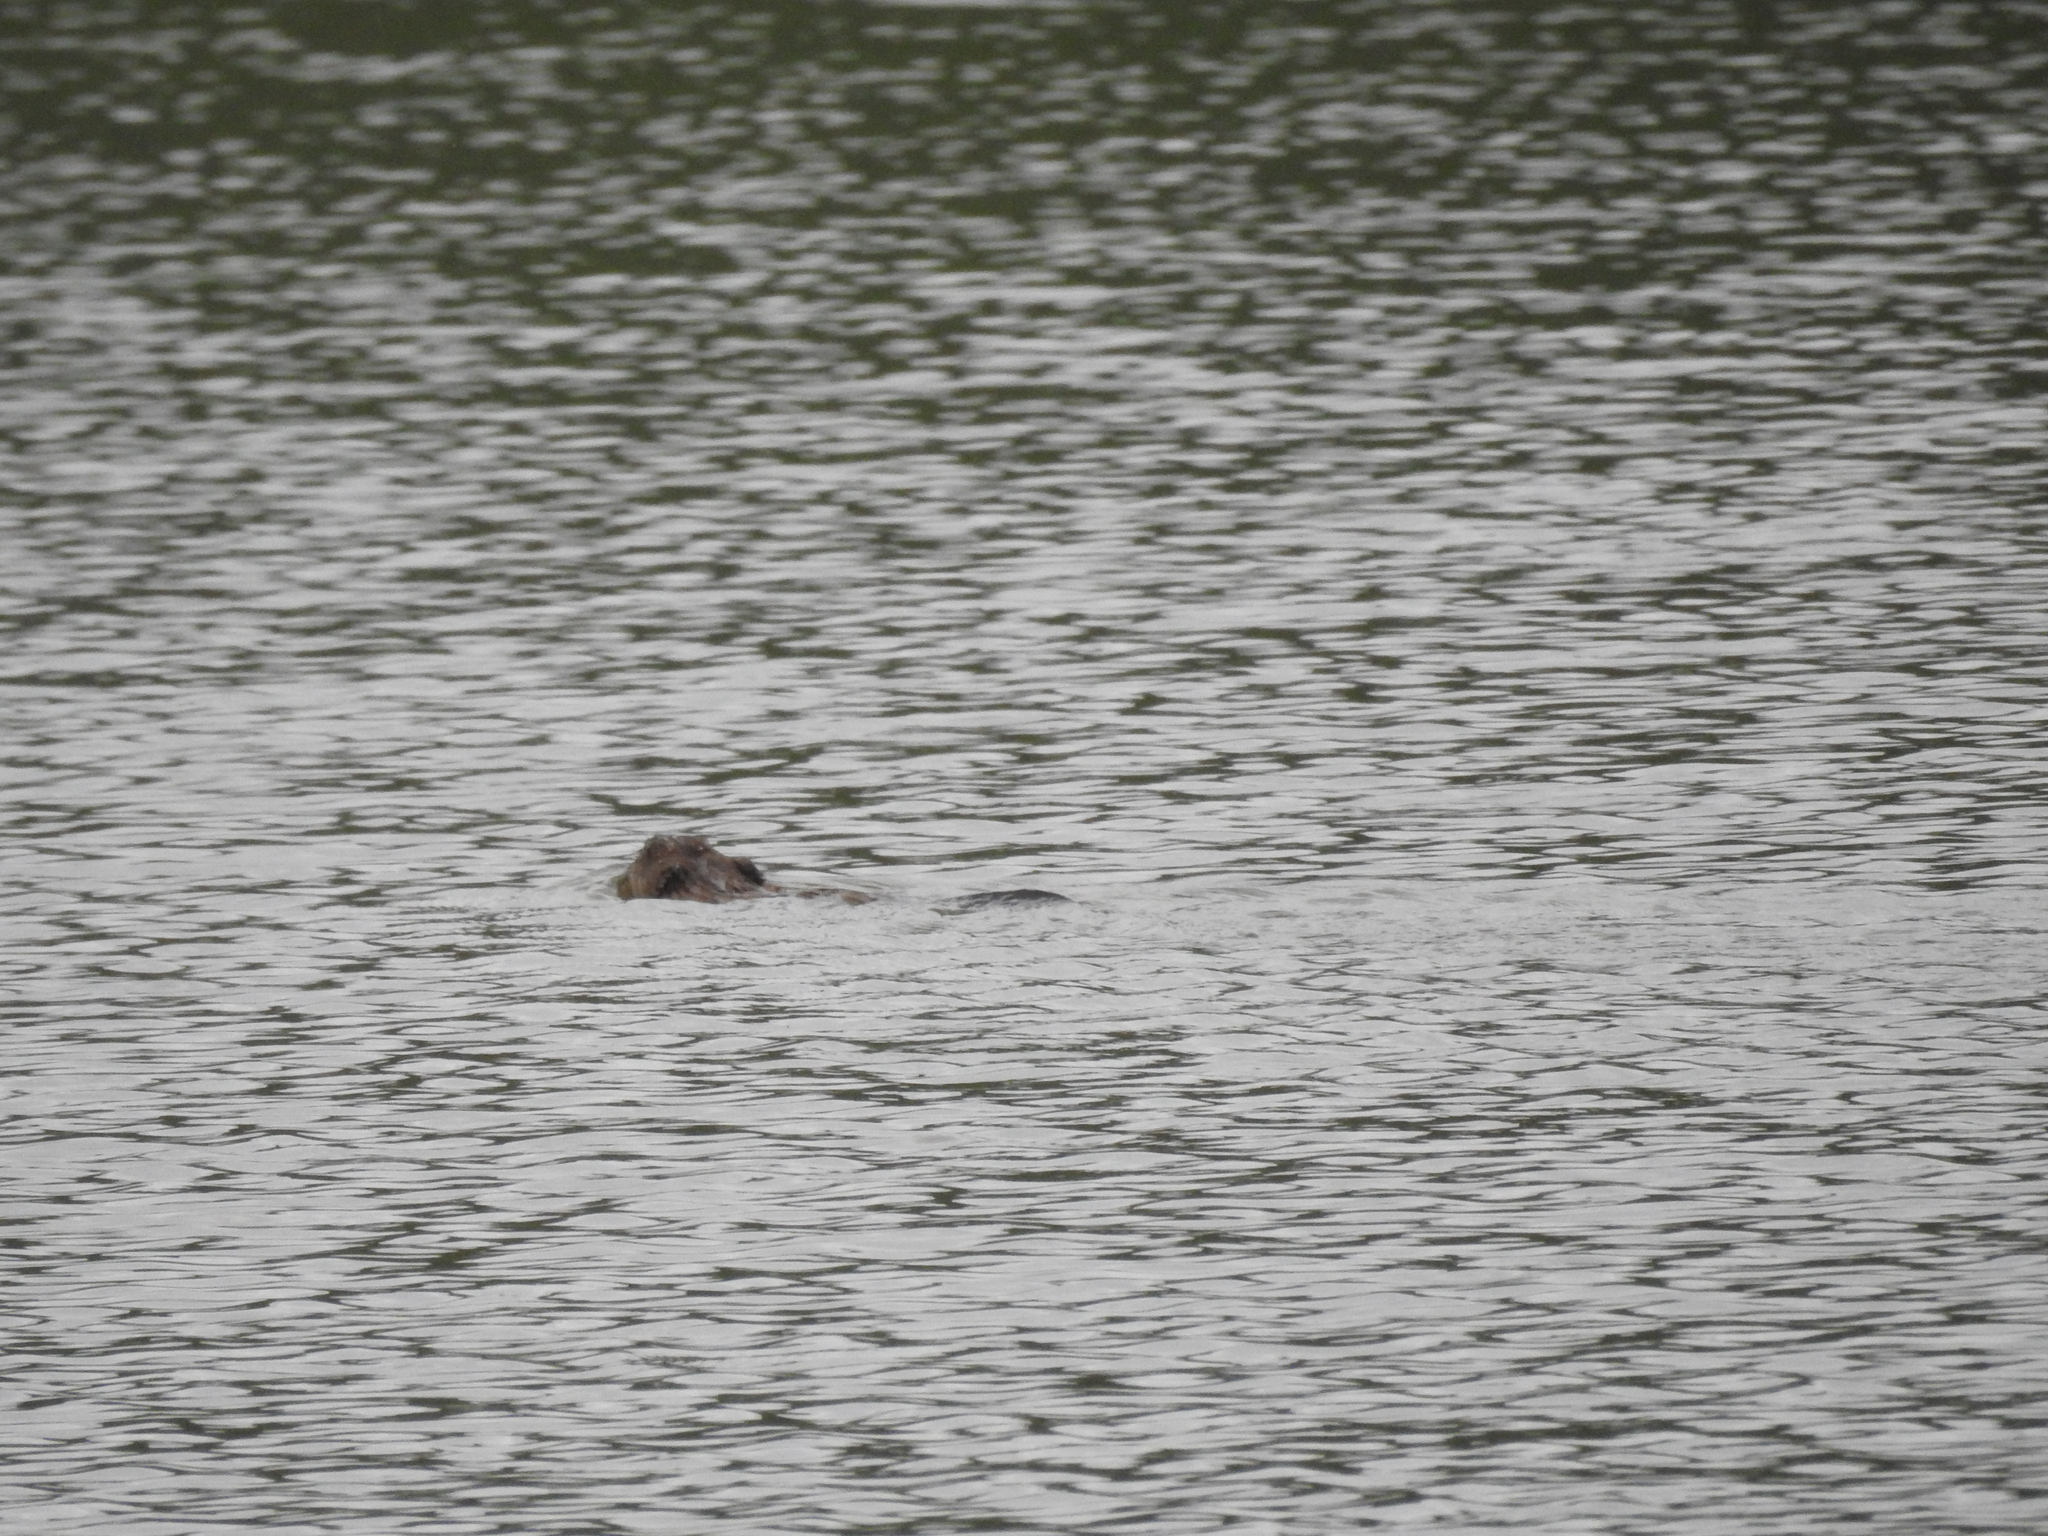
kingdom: Animalia
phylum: Chordata
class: Mammalia
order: Rodentia
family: Castoridae
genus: Castor
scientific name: Castor canadensis
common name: American beaver
